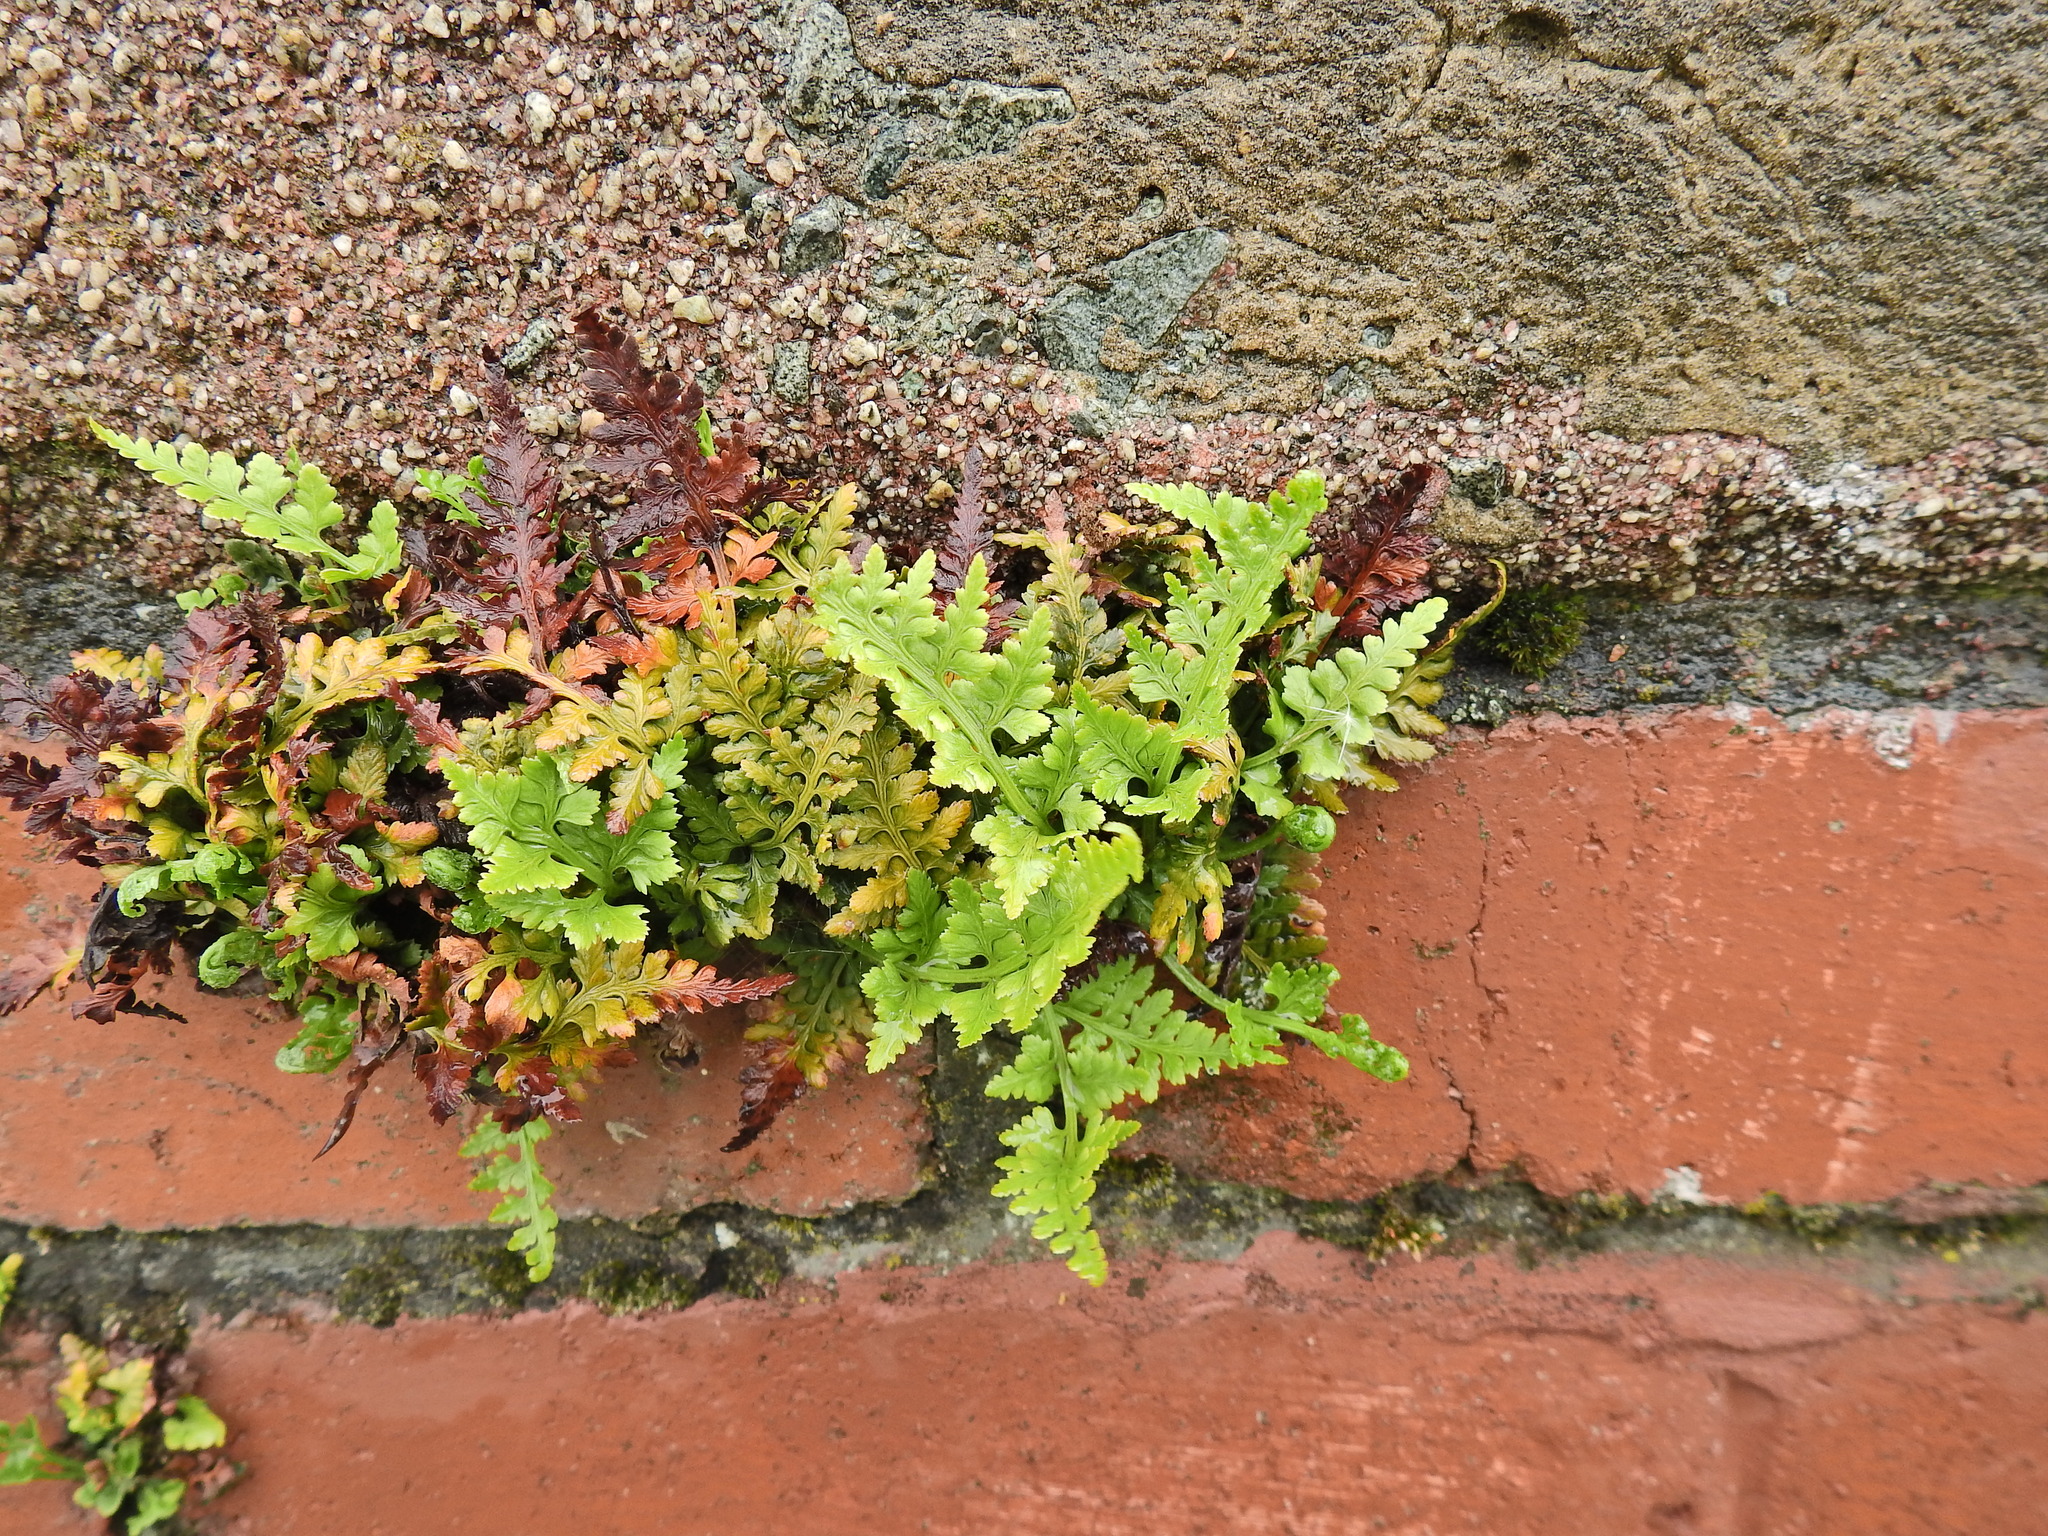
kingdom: Plantae
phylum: Tracheophyta
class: Polypodiopsida
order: Polypodiales
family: Aspleniaceae
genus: Asplenium
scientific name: Asplenium adiantum-nigrum
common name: Black spleenwort
